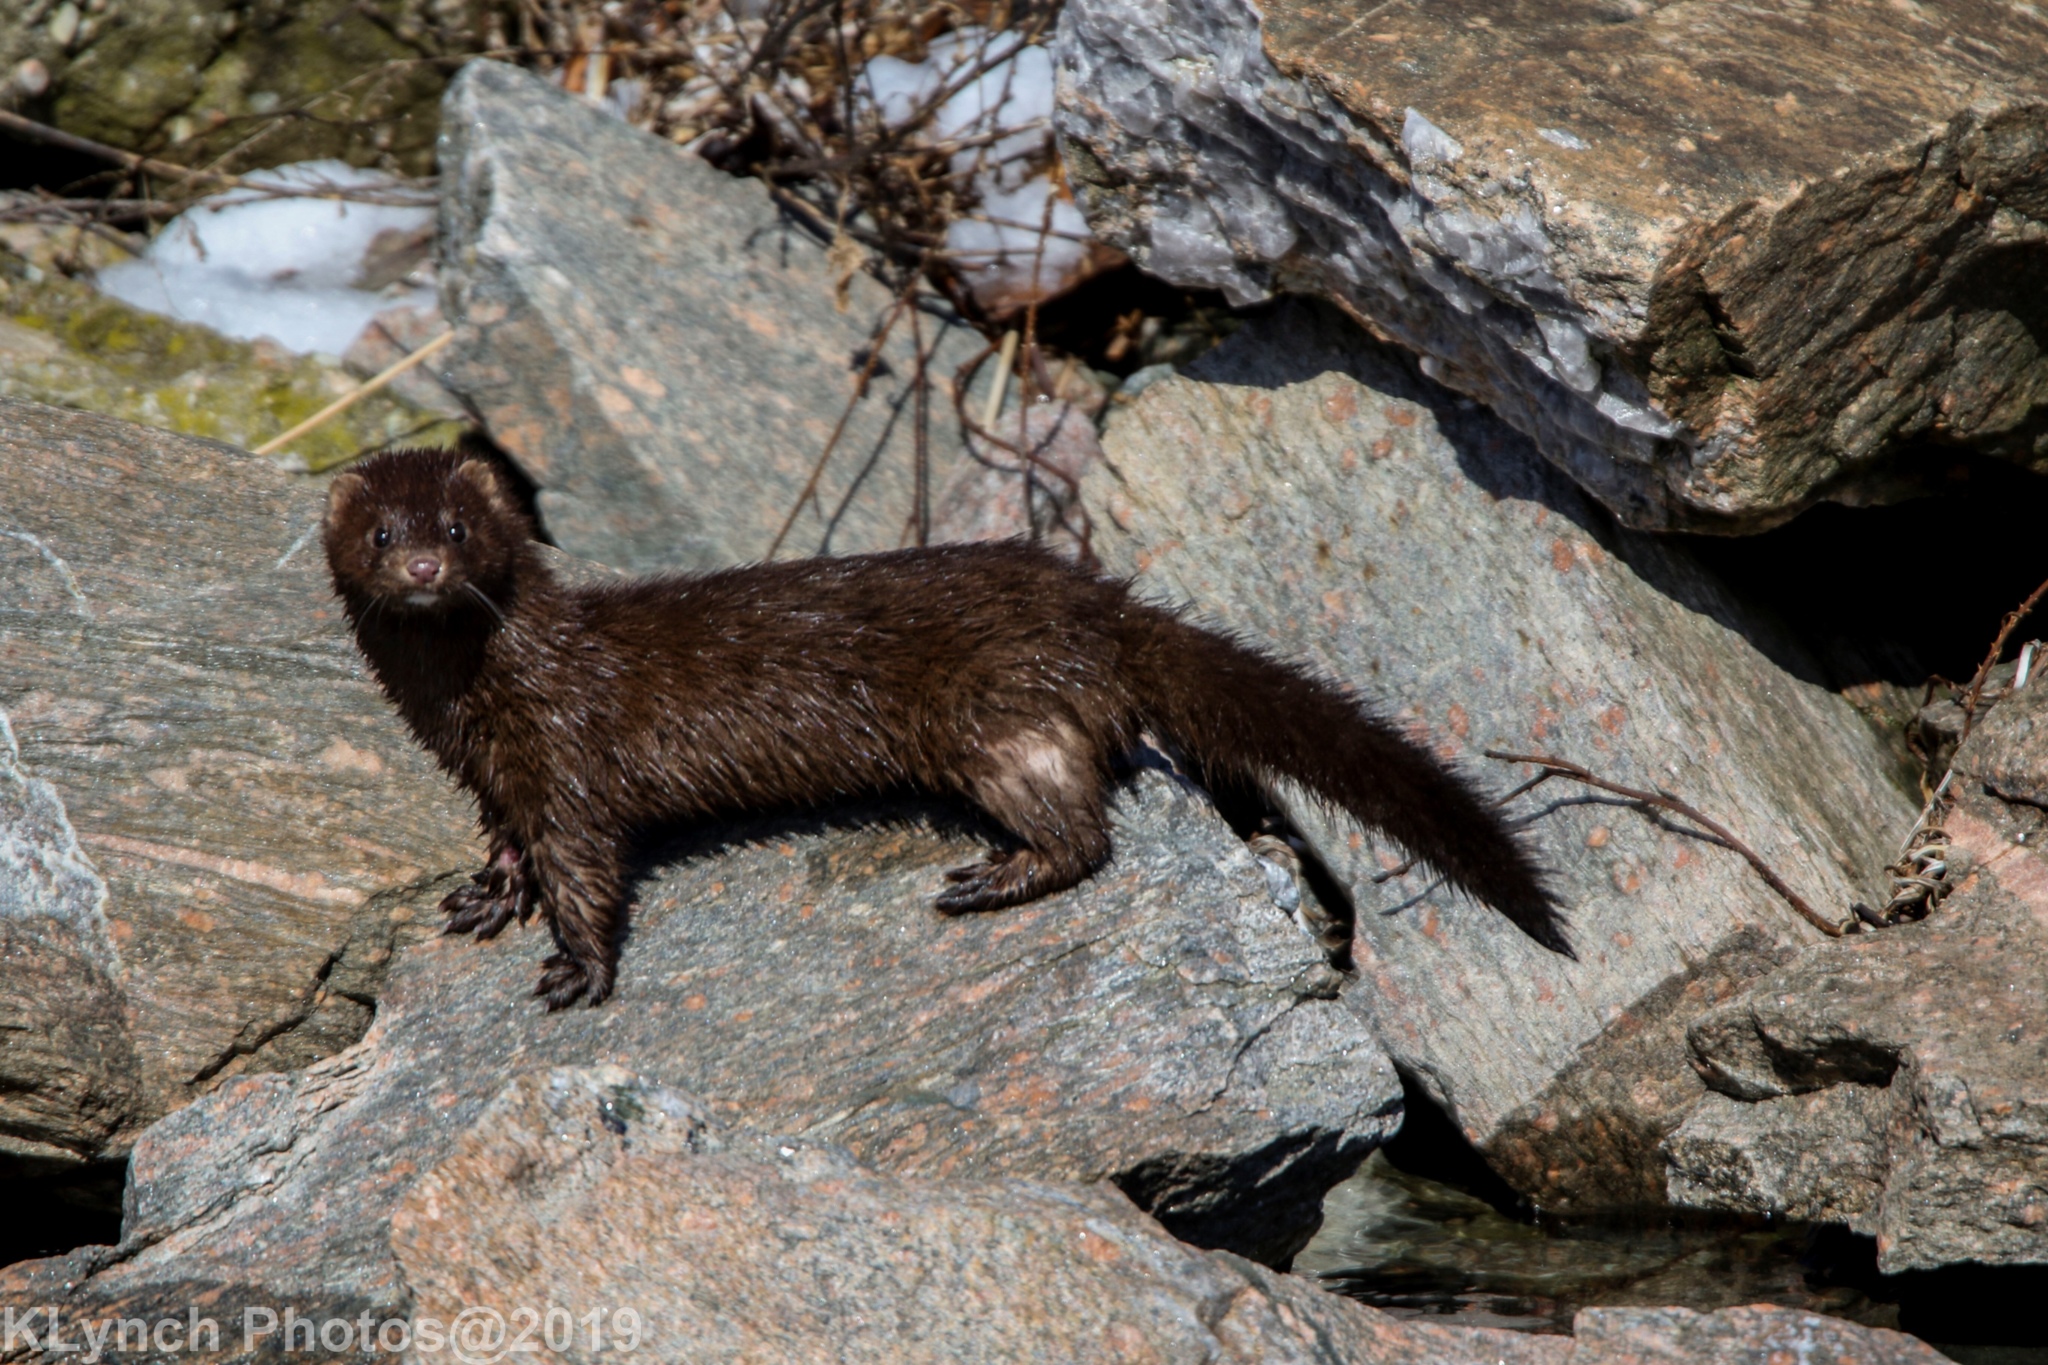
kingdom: Animalia
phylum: Chordata
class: Mammalia
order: Carnivora
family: Mustelidae
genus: Mustela
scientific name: Mustela
